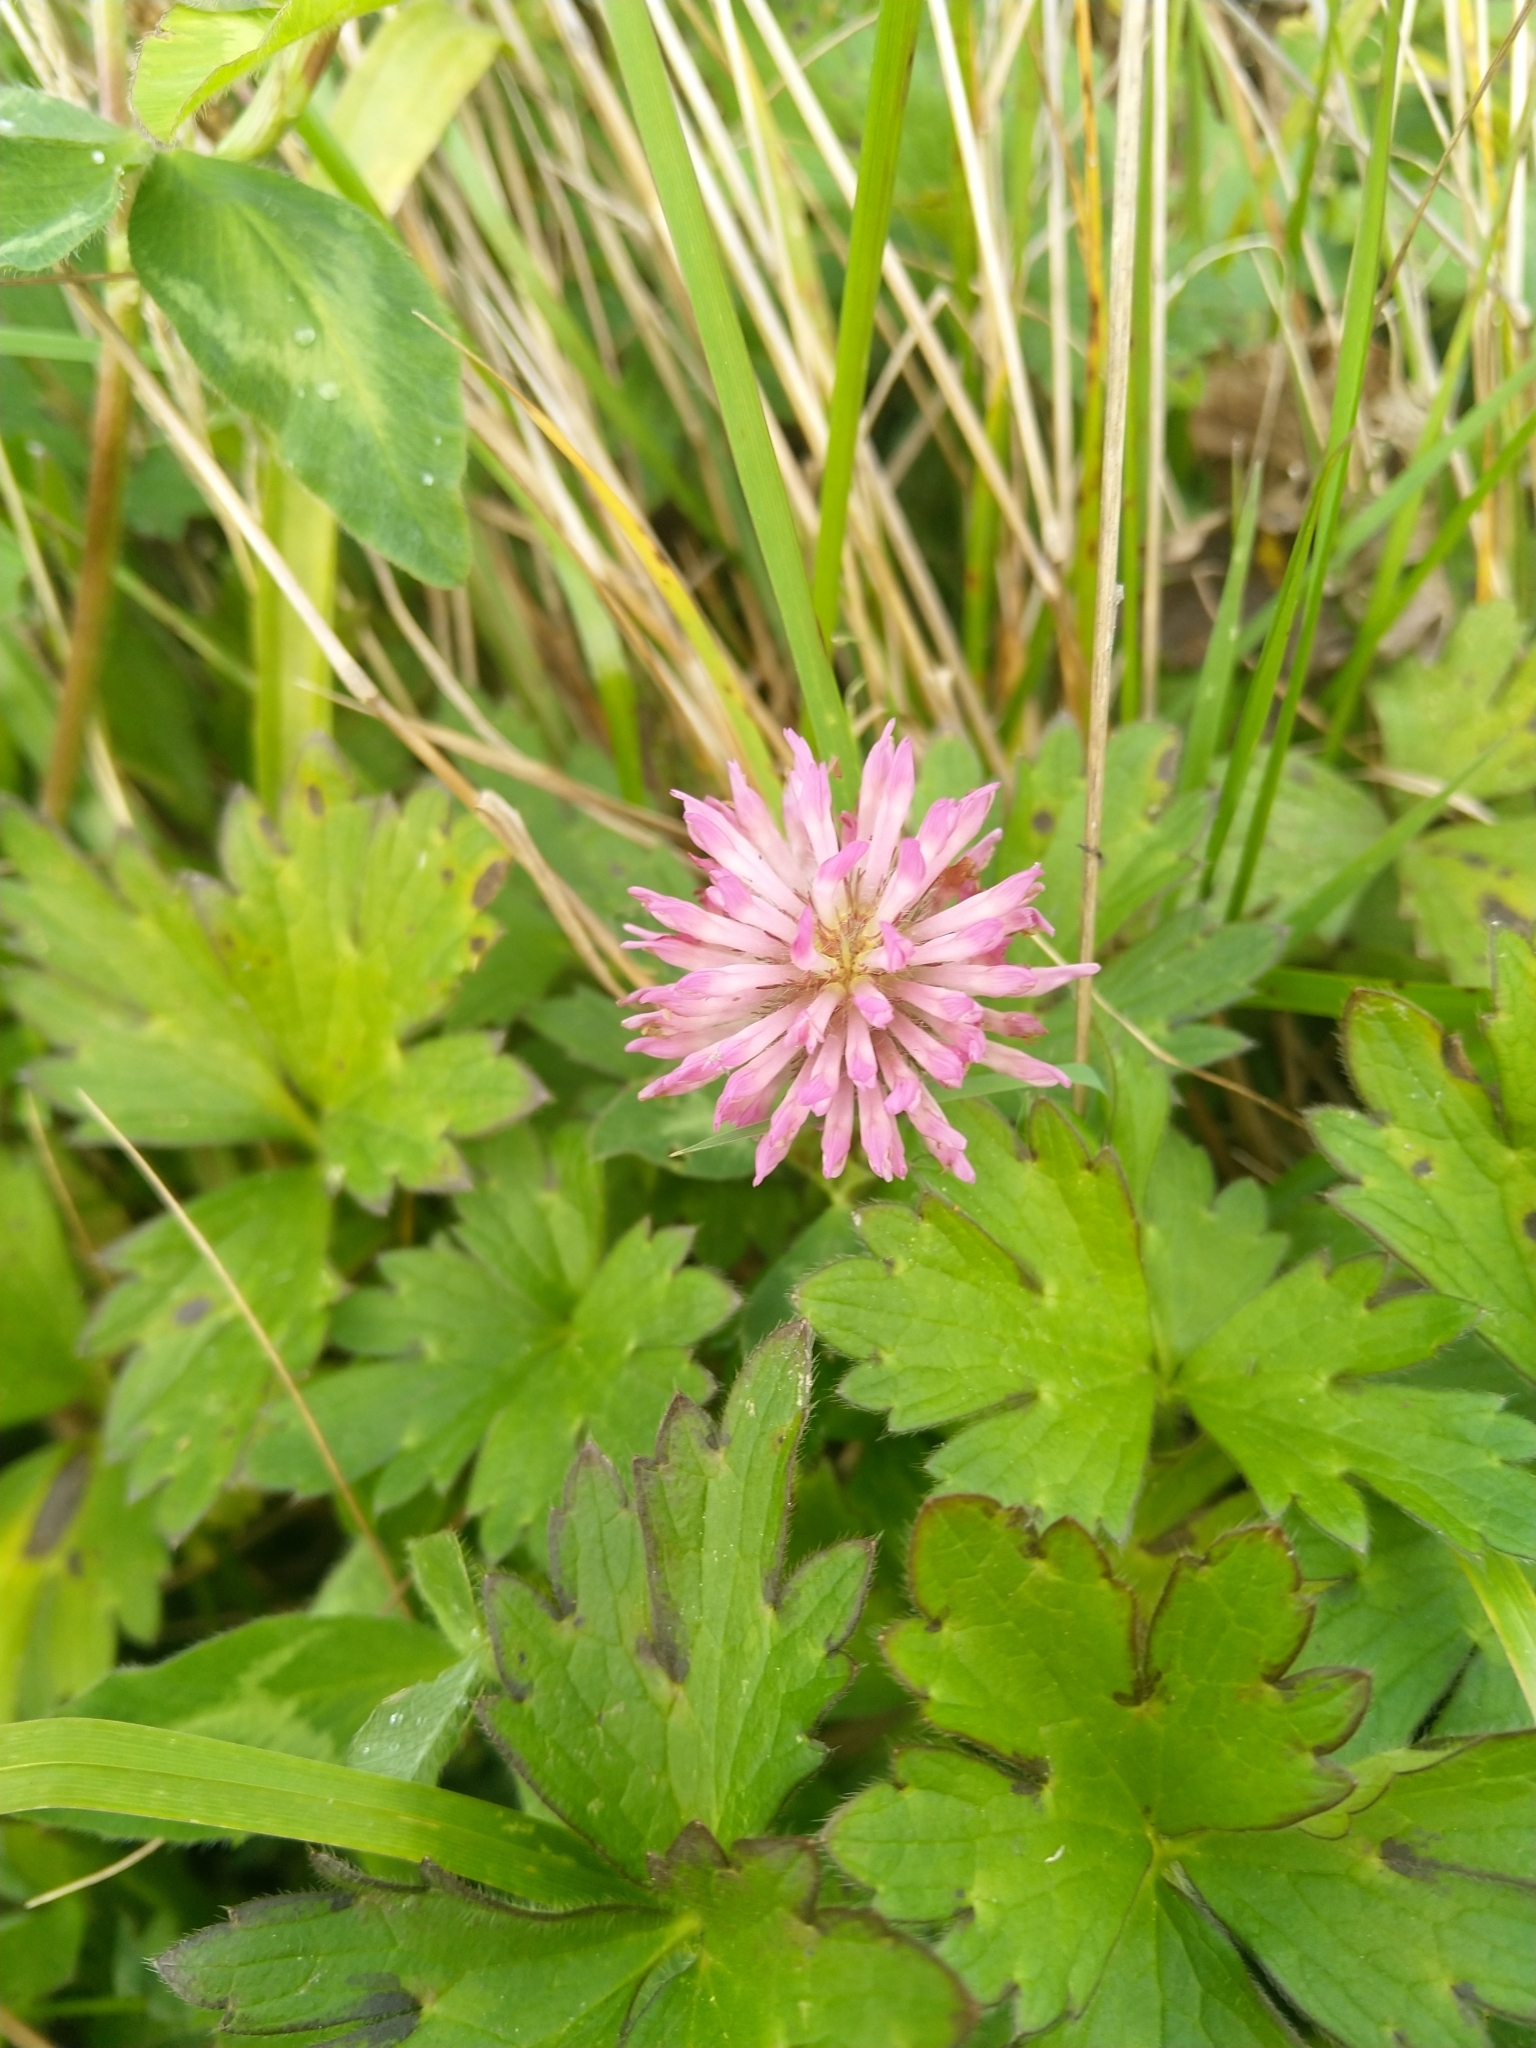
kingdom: Plantae
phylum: Tracheophyta
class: Magnoliopsida
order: Fabales
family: Fabaceae
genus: Trifolium
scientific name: Trifolium pratense
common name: Red clover
